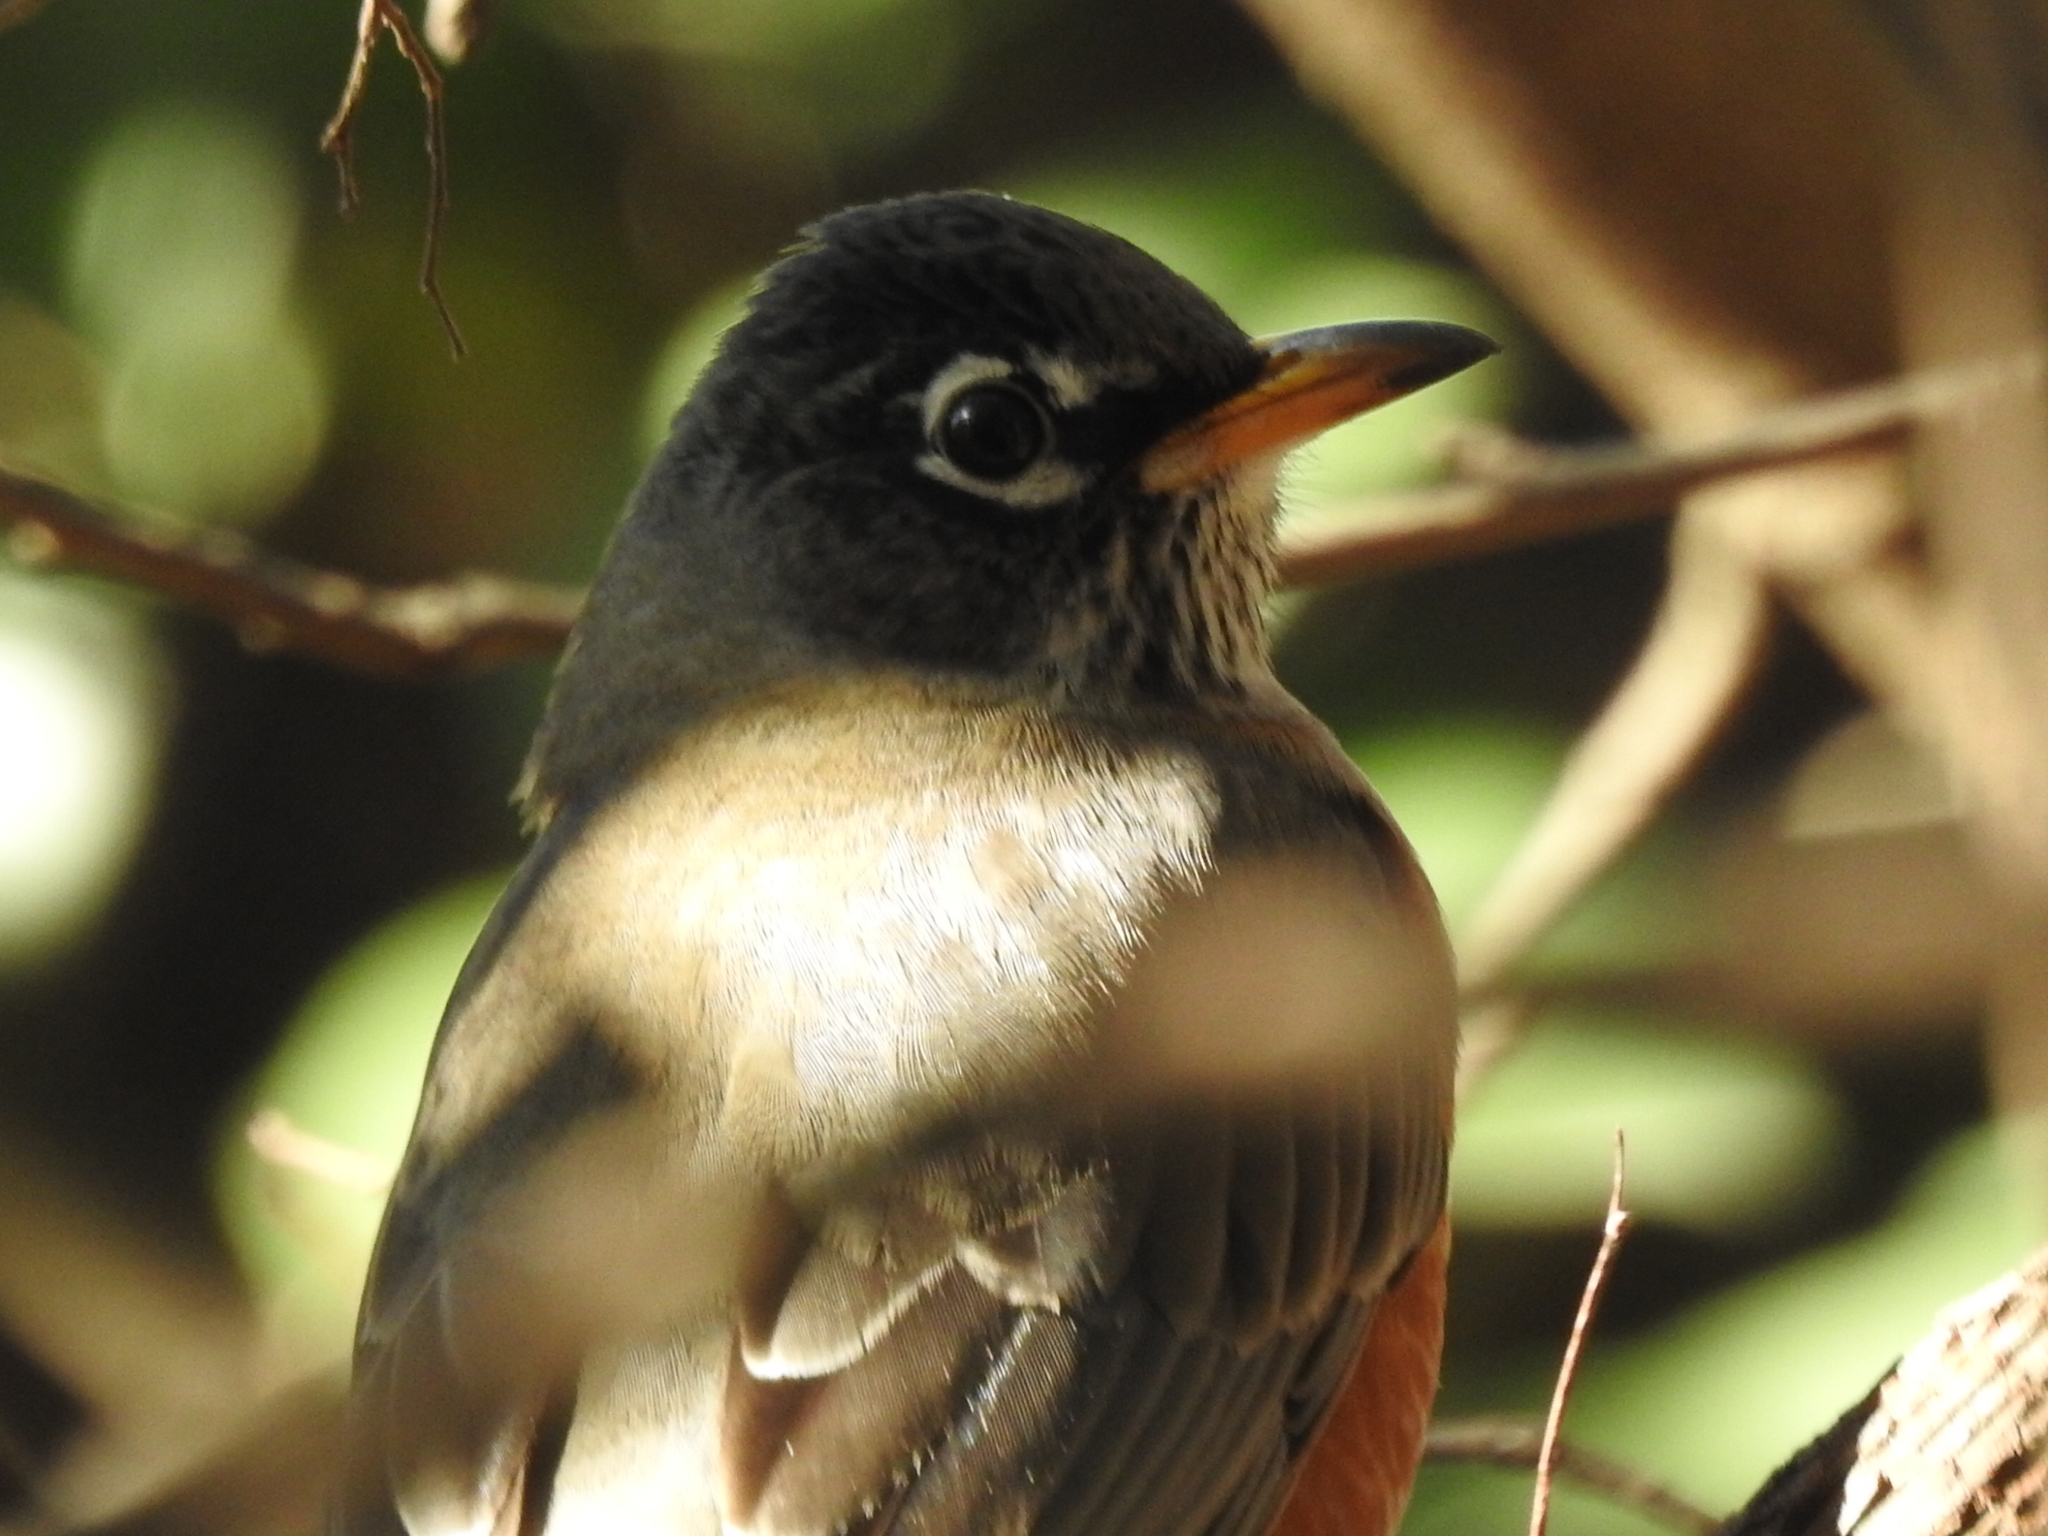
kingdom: Animalia
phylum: Chordata
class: Aves
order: Passeriformes
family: Turdidae
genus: Turdus
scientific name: Turdus migratorius
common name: American robin
